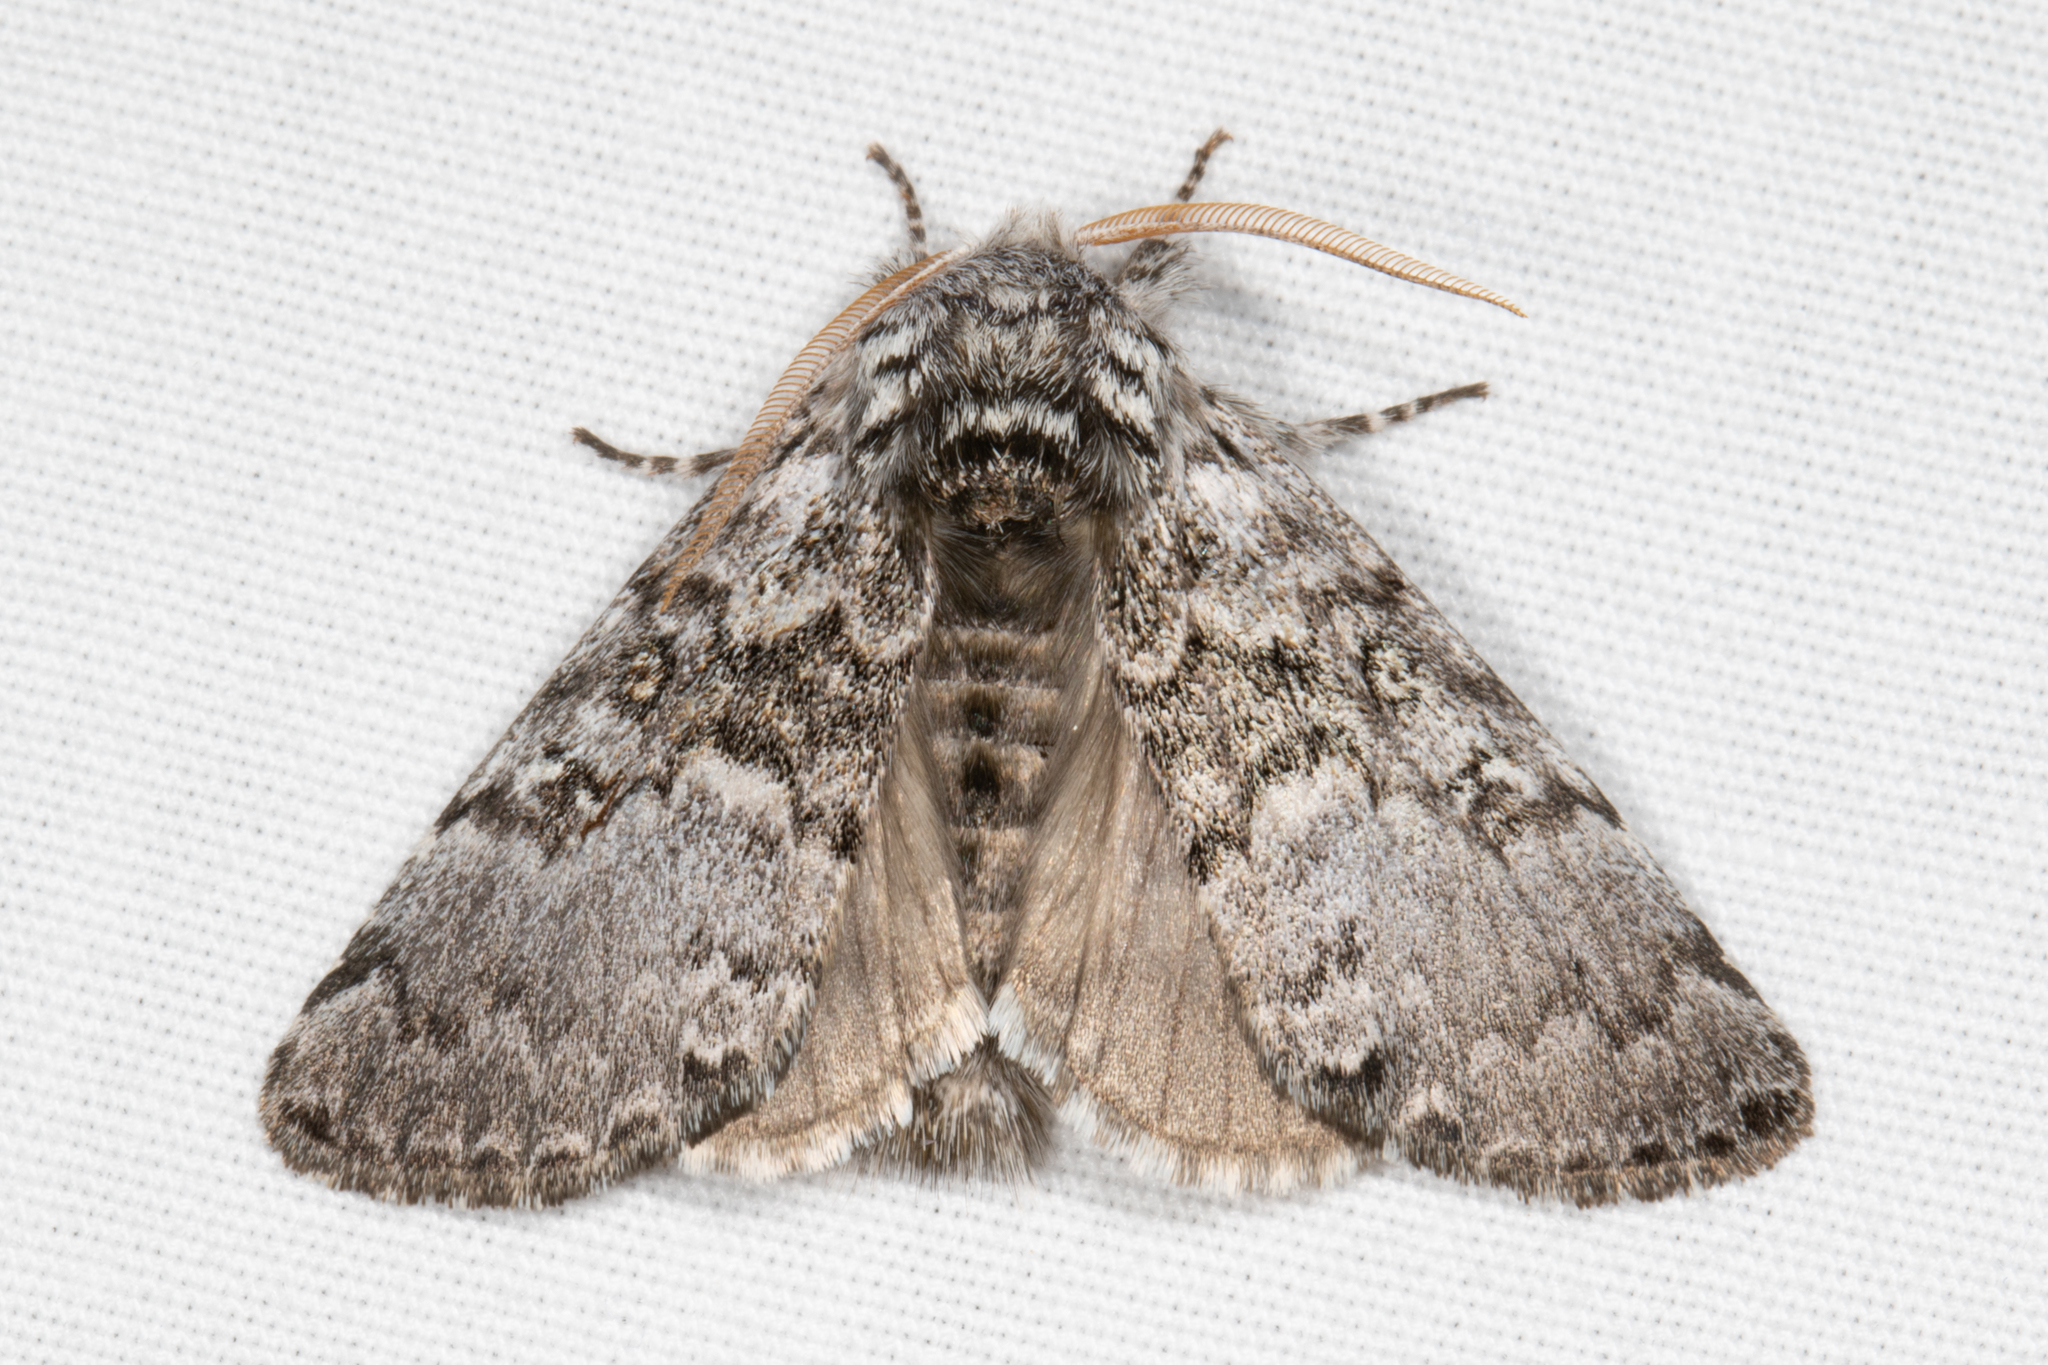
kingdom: Animalia
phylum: Arthropoda
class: Insecta
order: Lepidoptera
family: Noctuidae
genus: Colocasia
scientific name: Colocasia propinquilinea
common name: Close-banded demas
